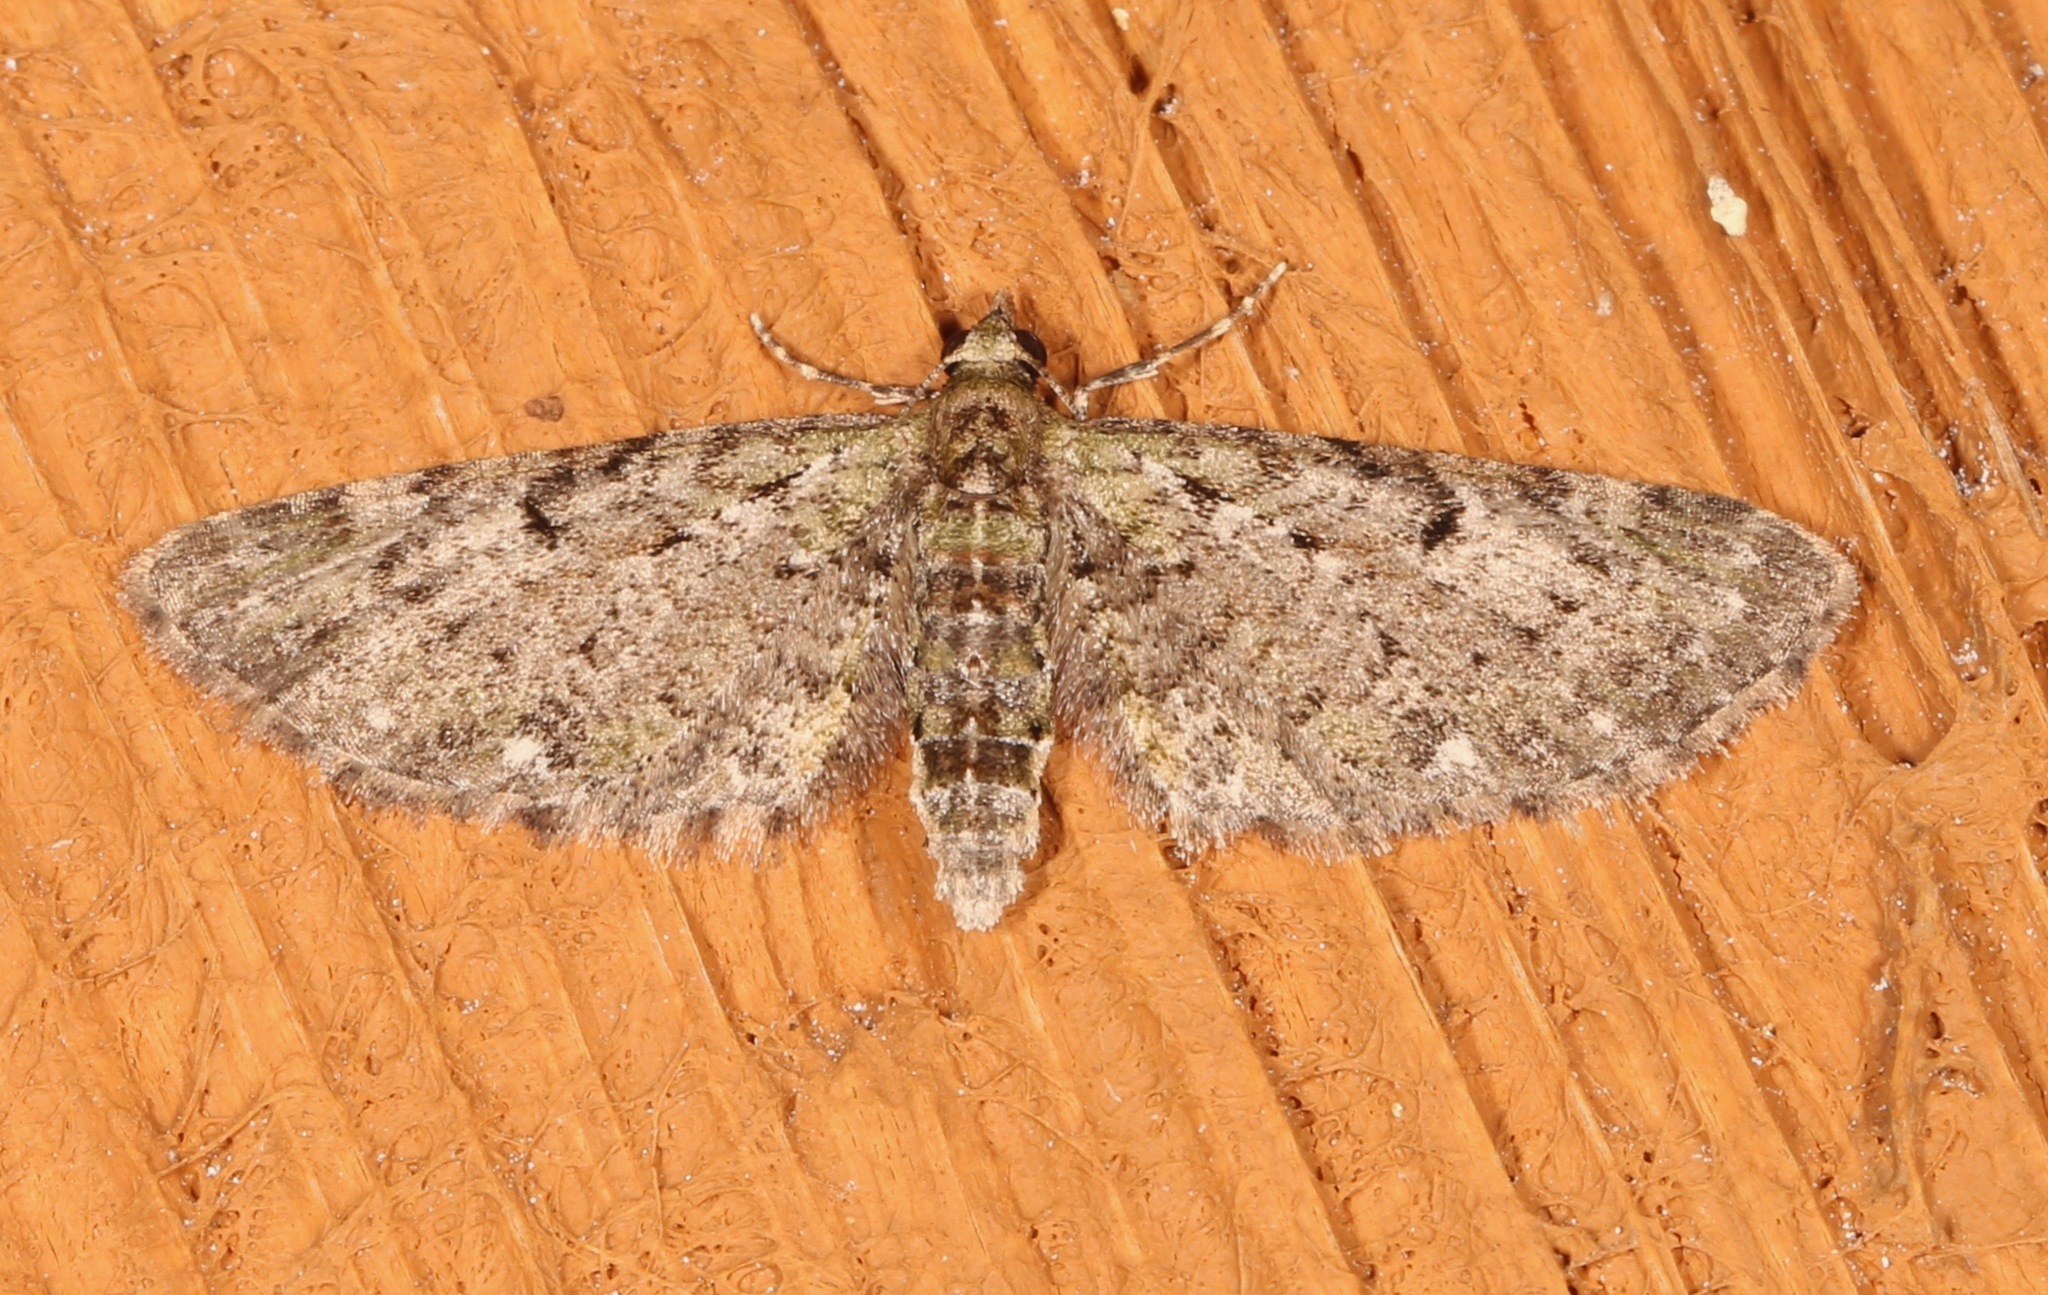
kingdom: Animalia
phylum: Arthropoda
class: Insecta
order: Lepidoptera
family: Geometridae
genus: Eupithecia
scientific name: Eupithecia miserulata
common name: Common eupithecia
